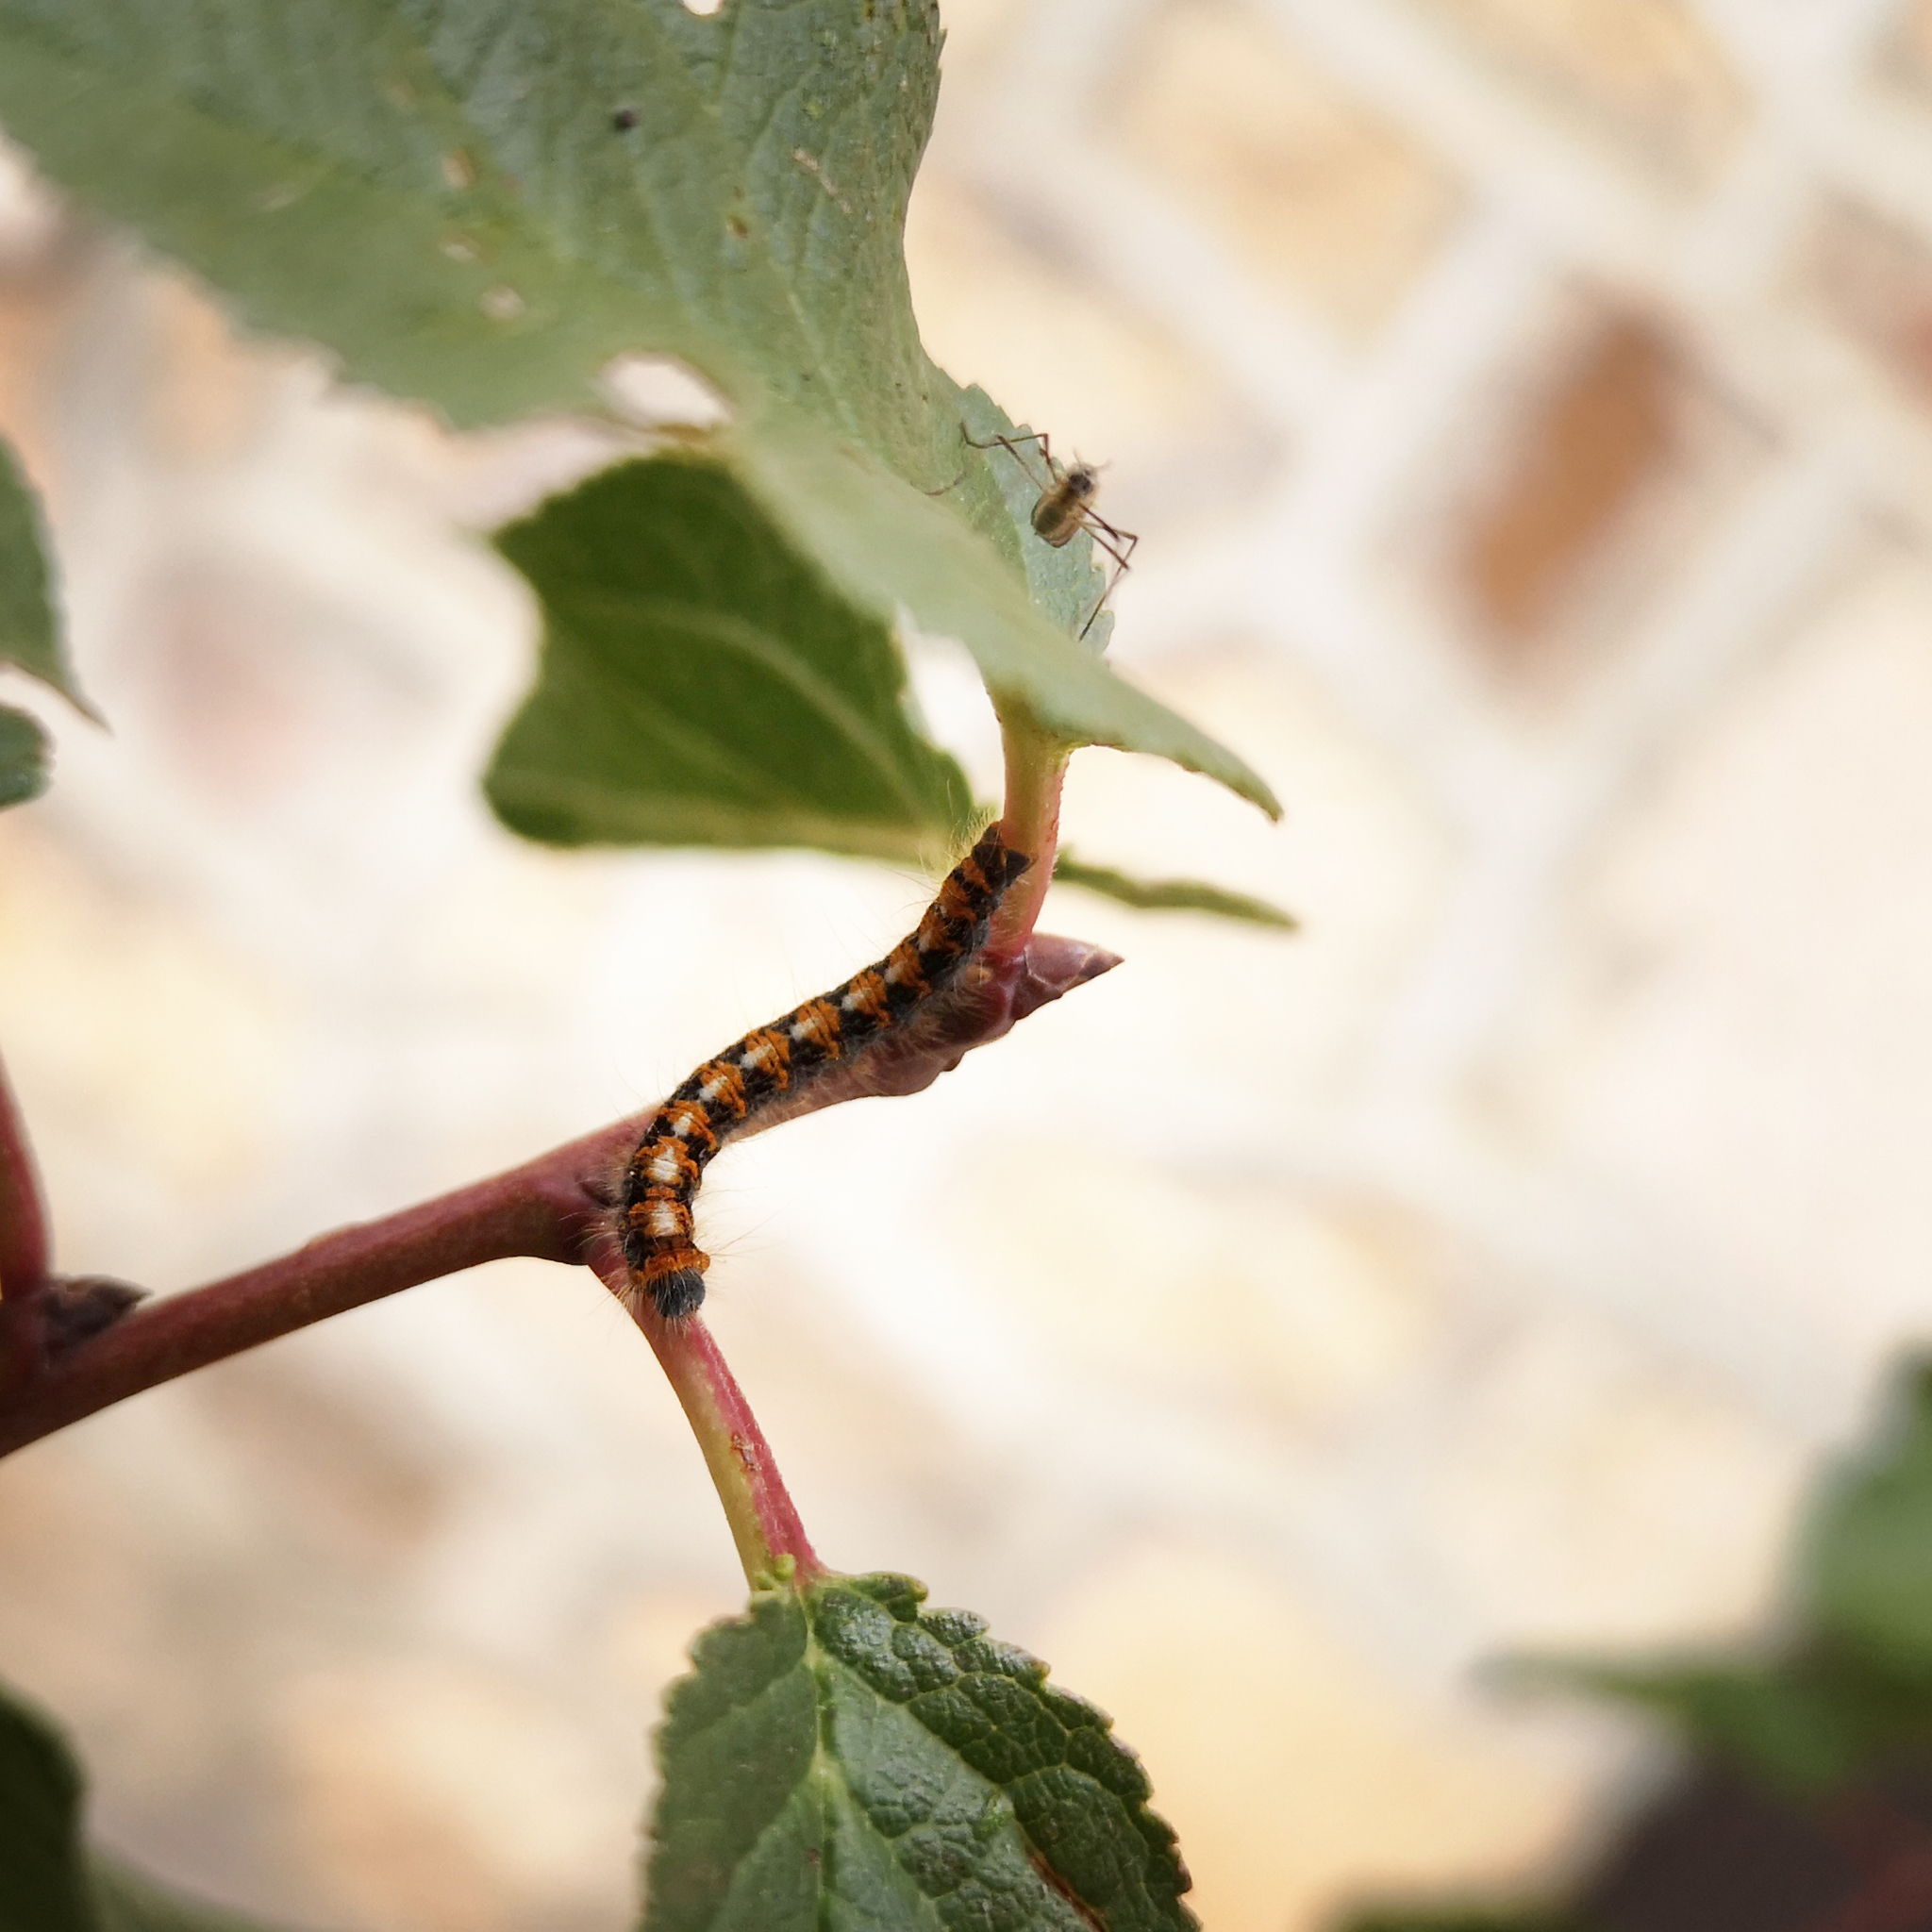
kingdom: Animalia
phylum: Arthropoda
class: Insecta
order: Lepidoptera
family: Lasiocampidae
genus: Lasiocampa
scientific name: Lasiocampa quercus
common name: Oak eggar
